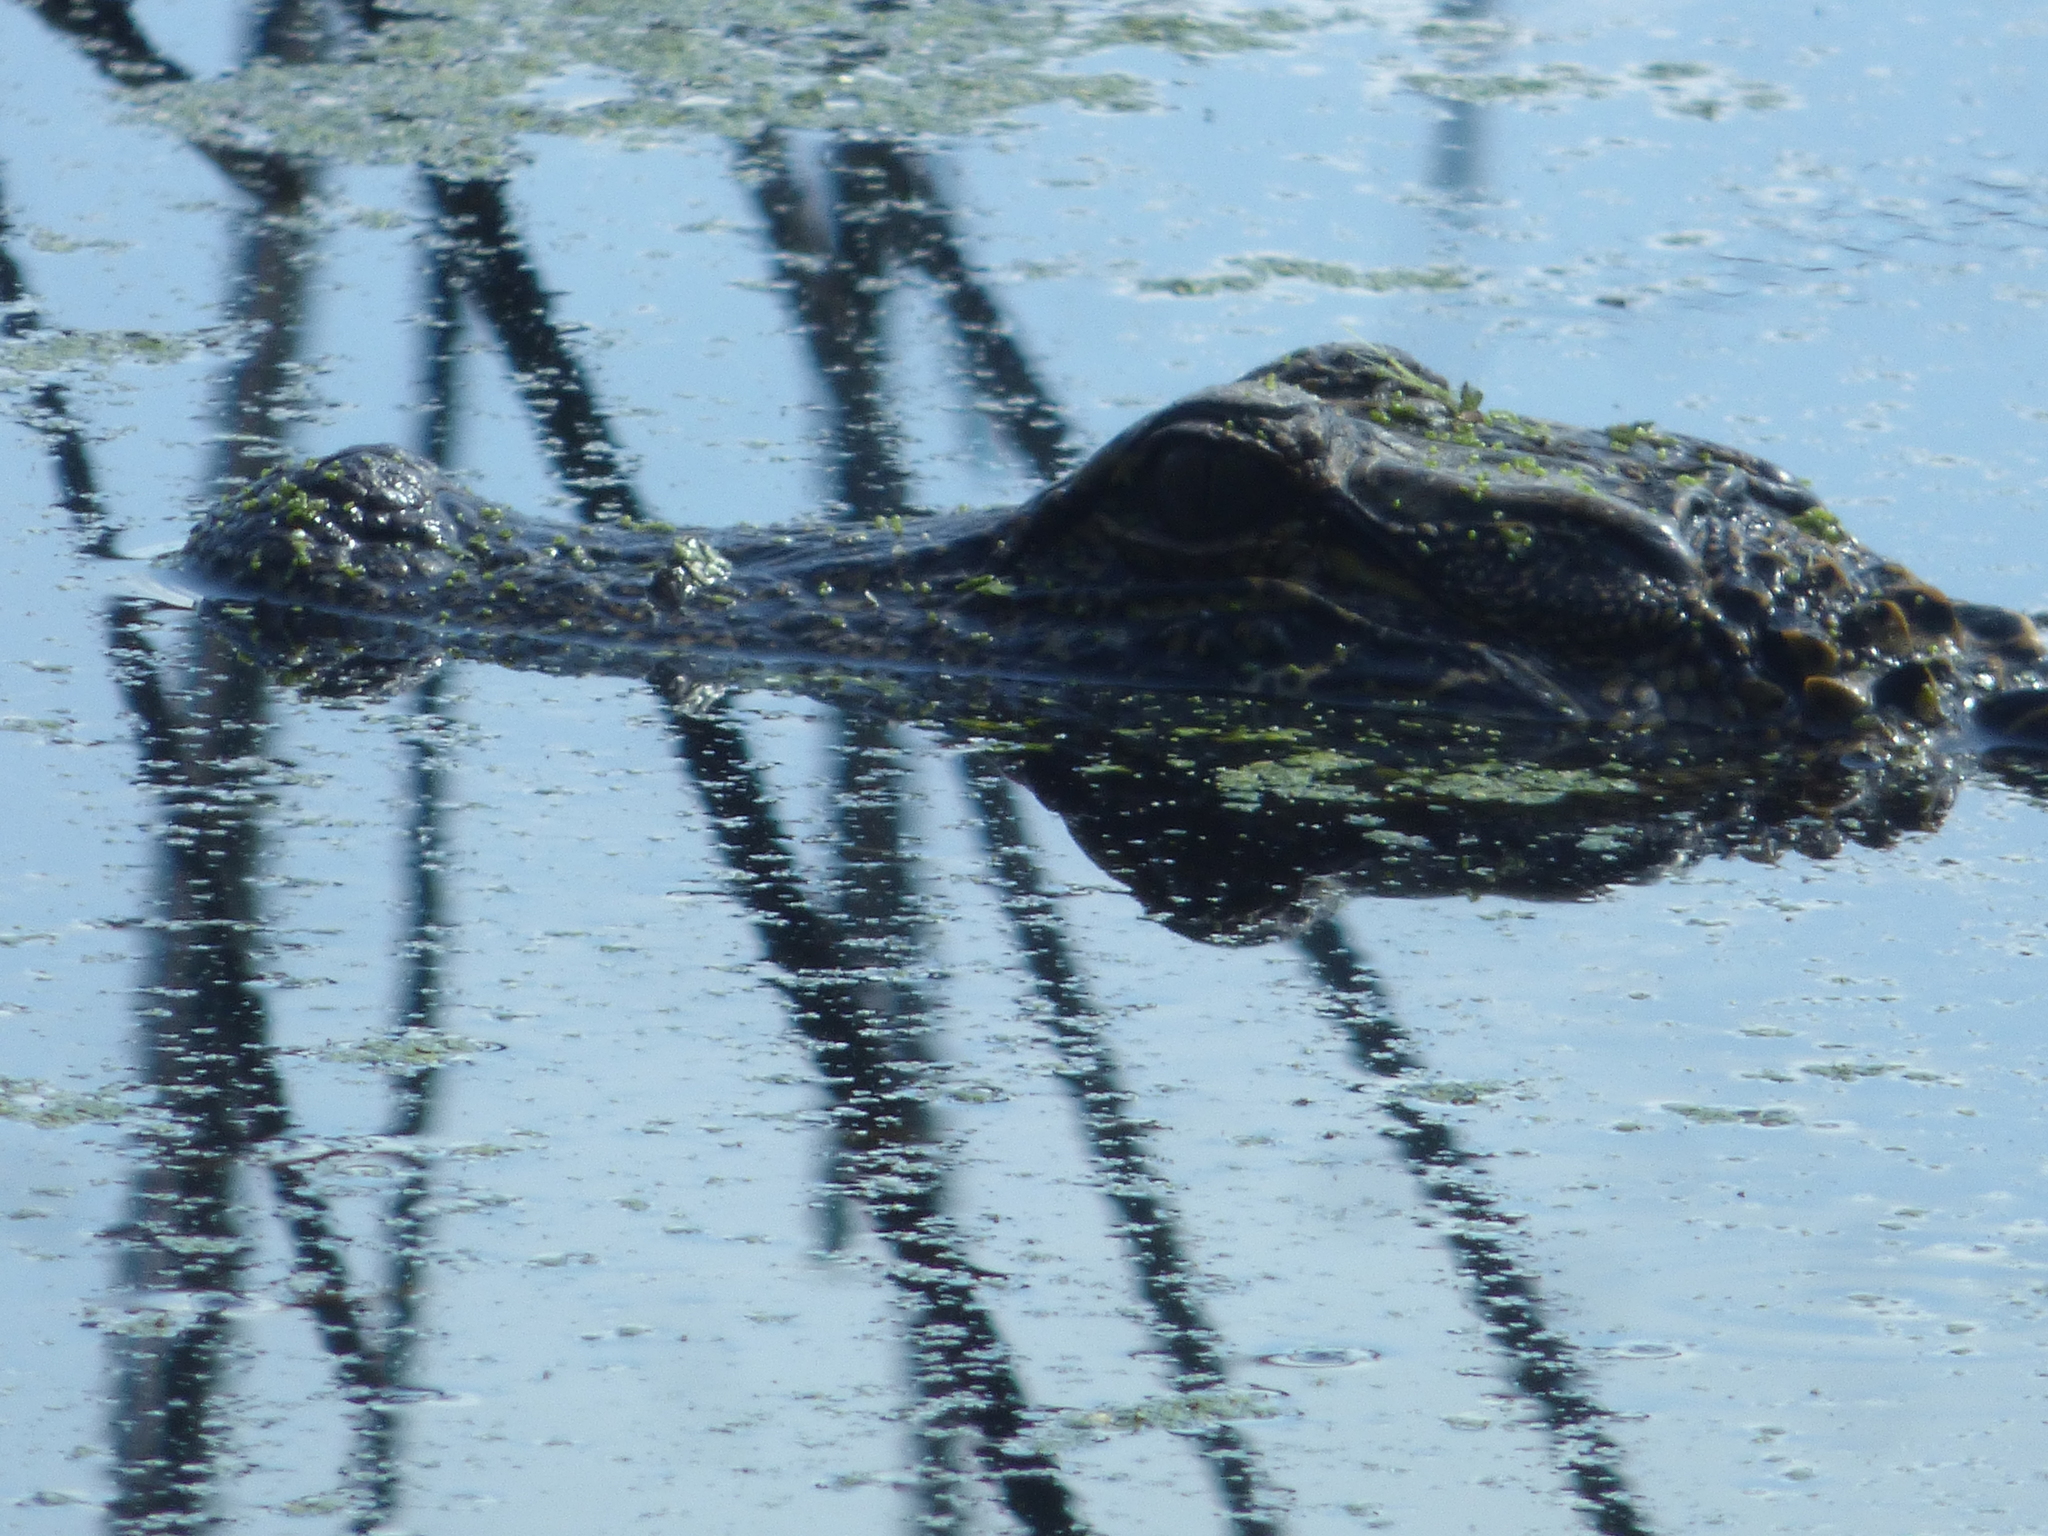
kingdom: Animalia
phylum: Chordata
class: Crocodylia
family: Alligatoridae
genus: Alligator
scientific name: Alligator mississippiensis
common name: American alligator
